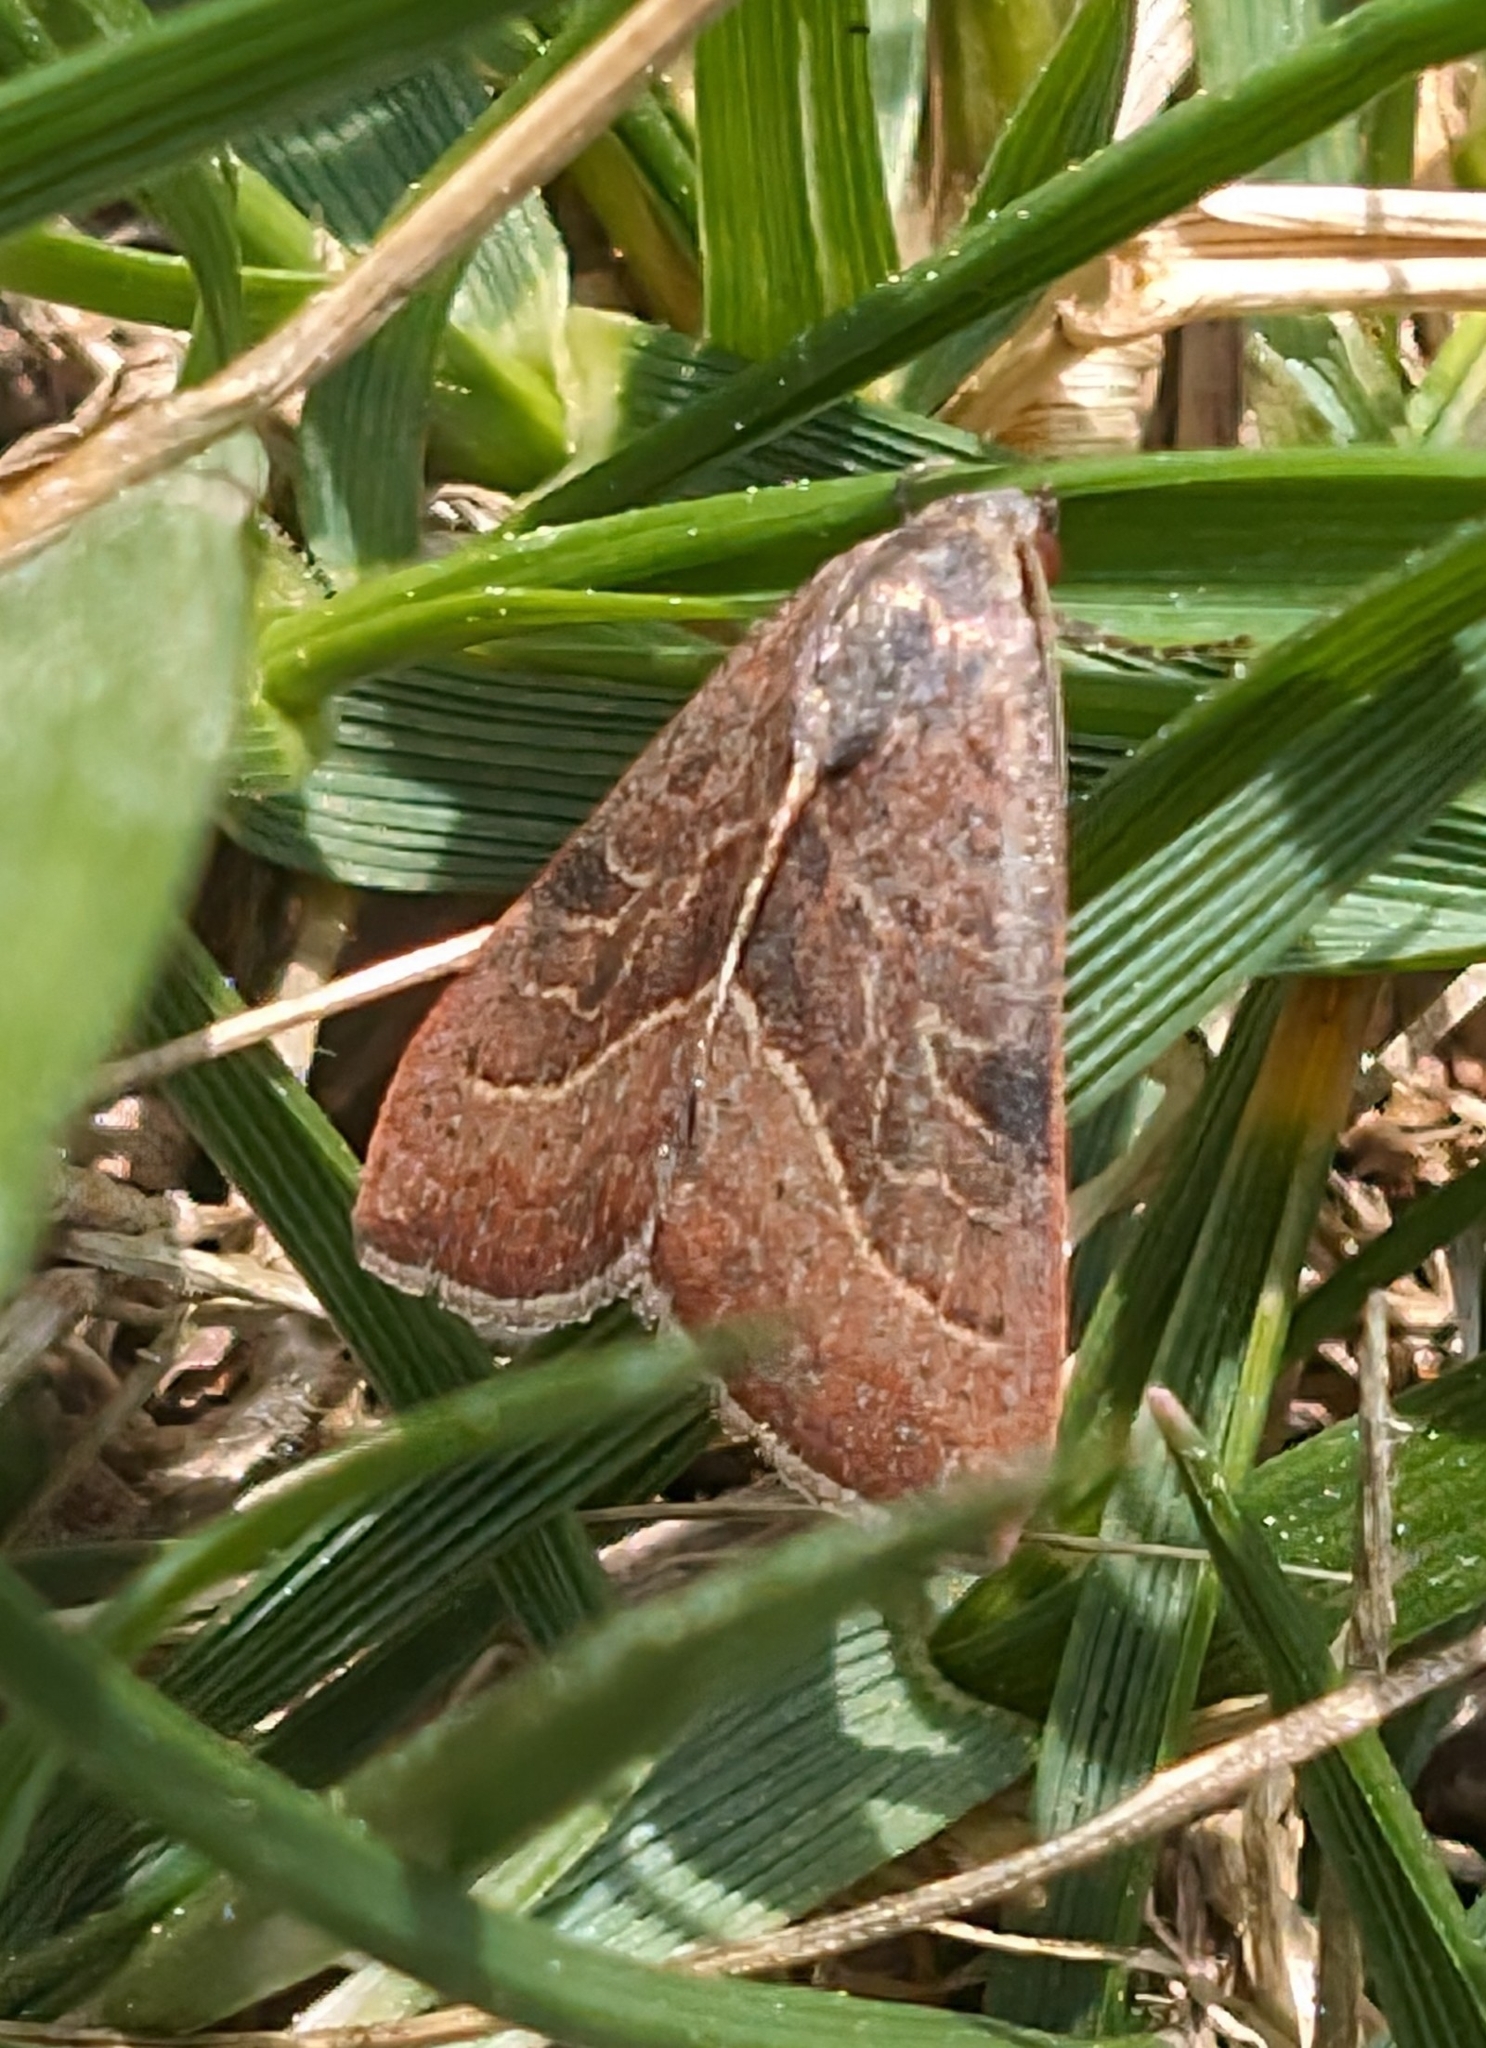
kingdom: Animalia
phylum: Arthropoda
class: Insecta
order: Lepidoptera
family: Noctuidae
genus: Galgula
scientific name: Galgula partita
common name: Wedgeling
